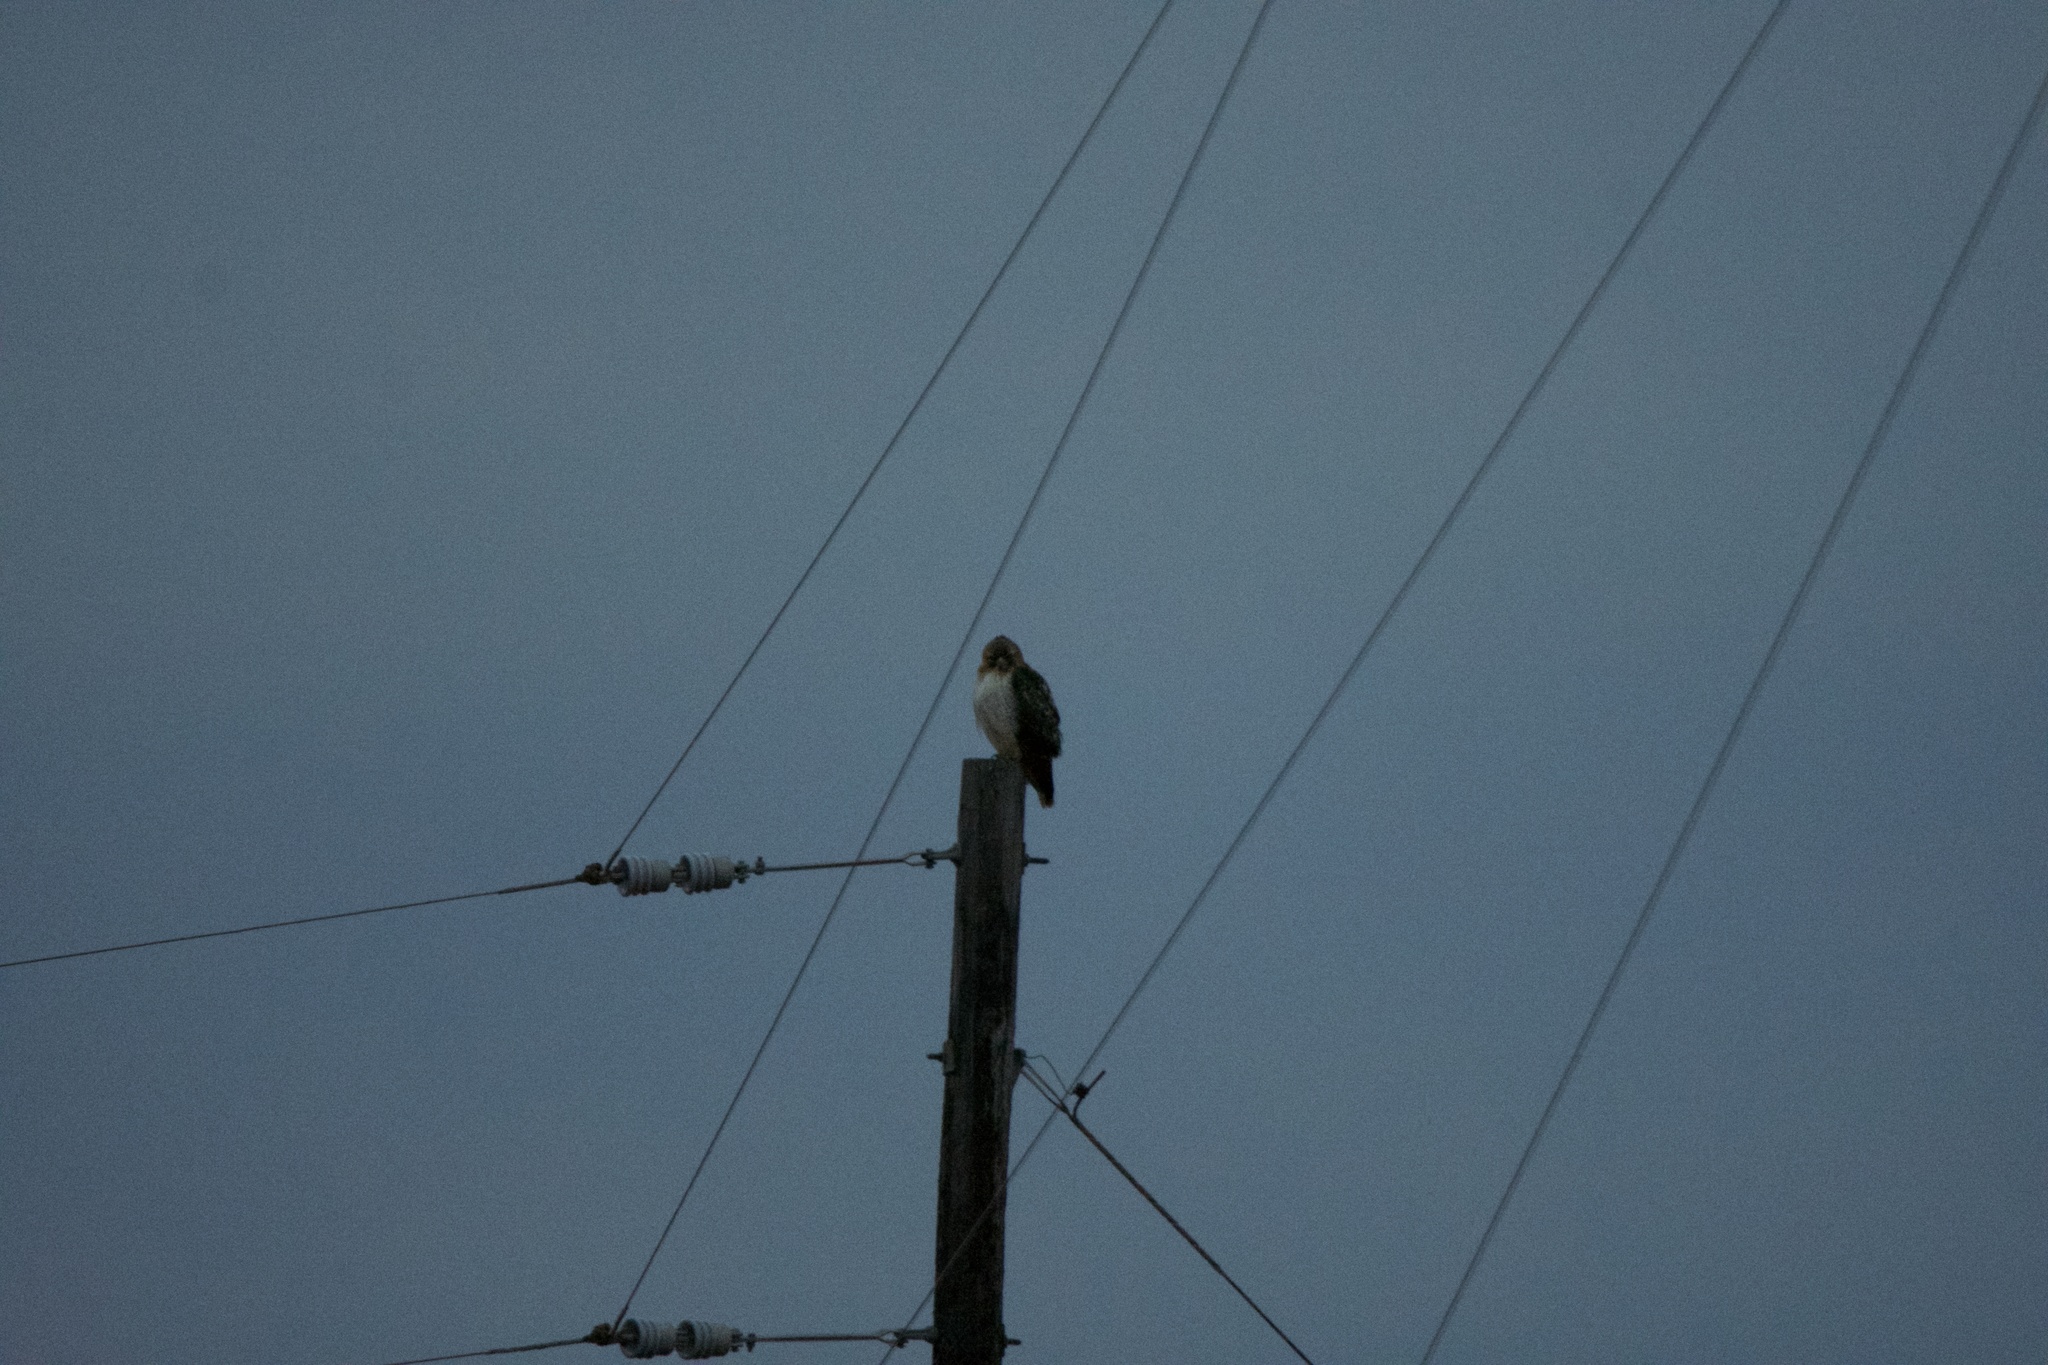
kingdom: Animalia
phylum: Chordata
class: Aves
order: Accipitriformes
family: Accipitridae
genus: Buteo
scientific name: Buteo jamaicensis
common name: Red-tailed hawk
